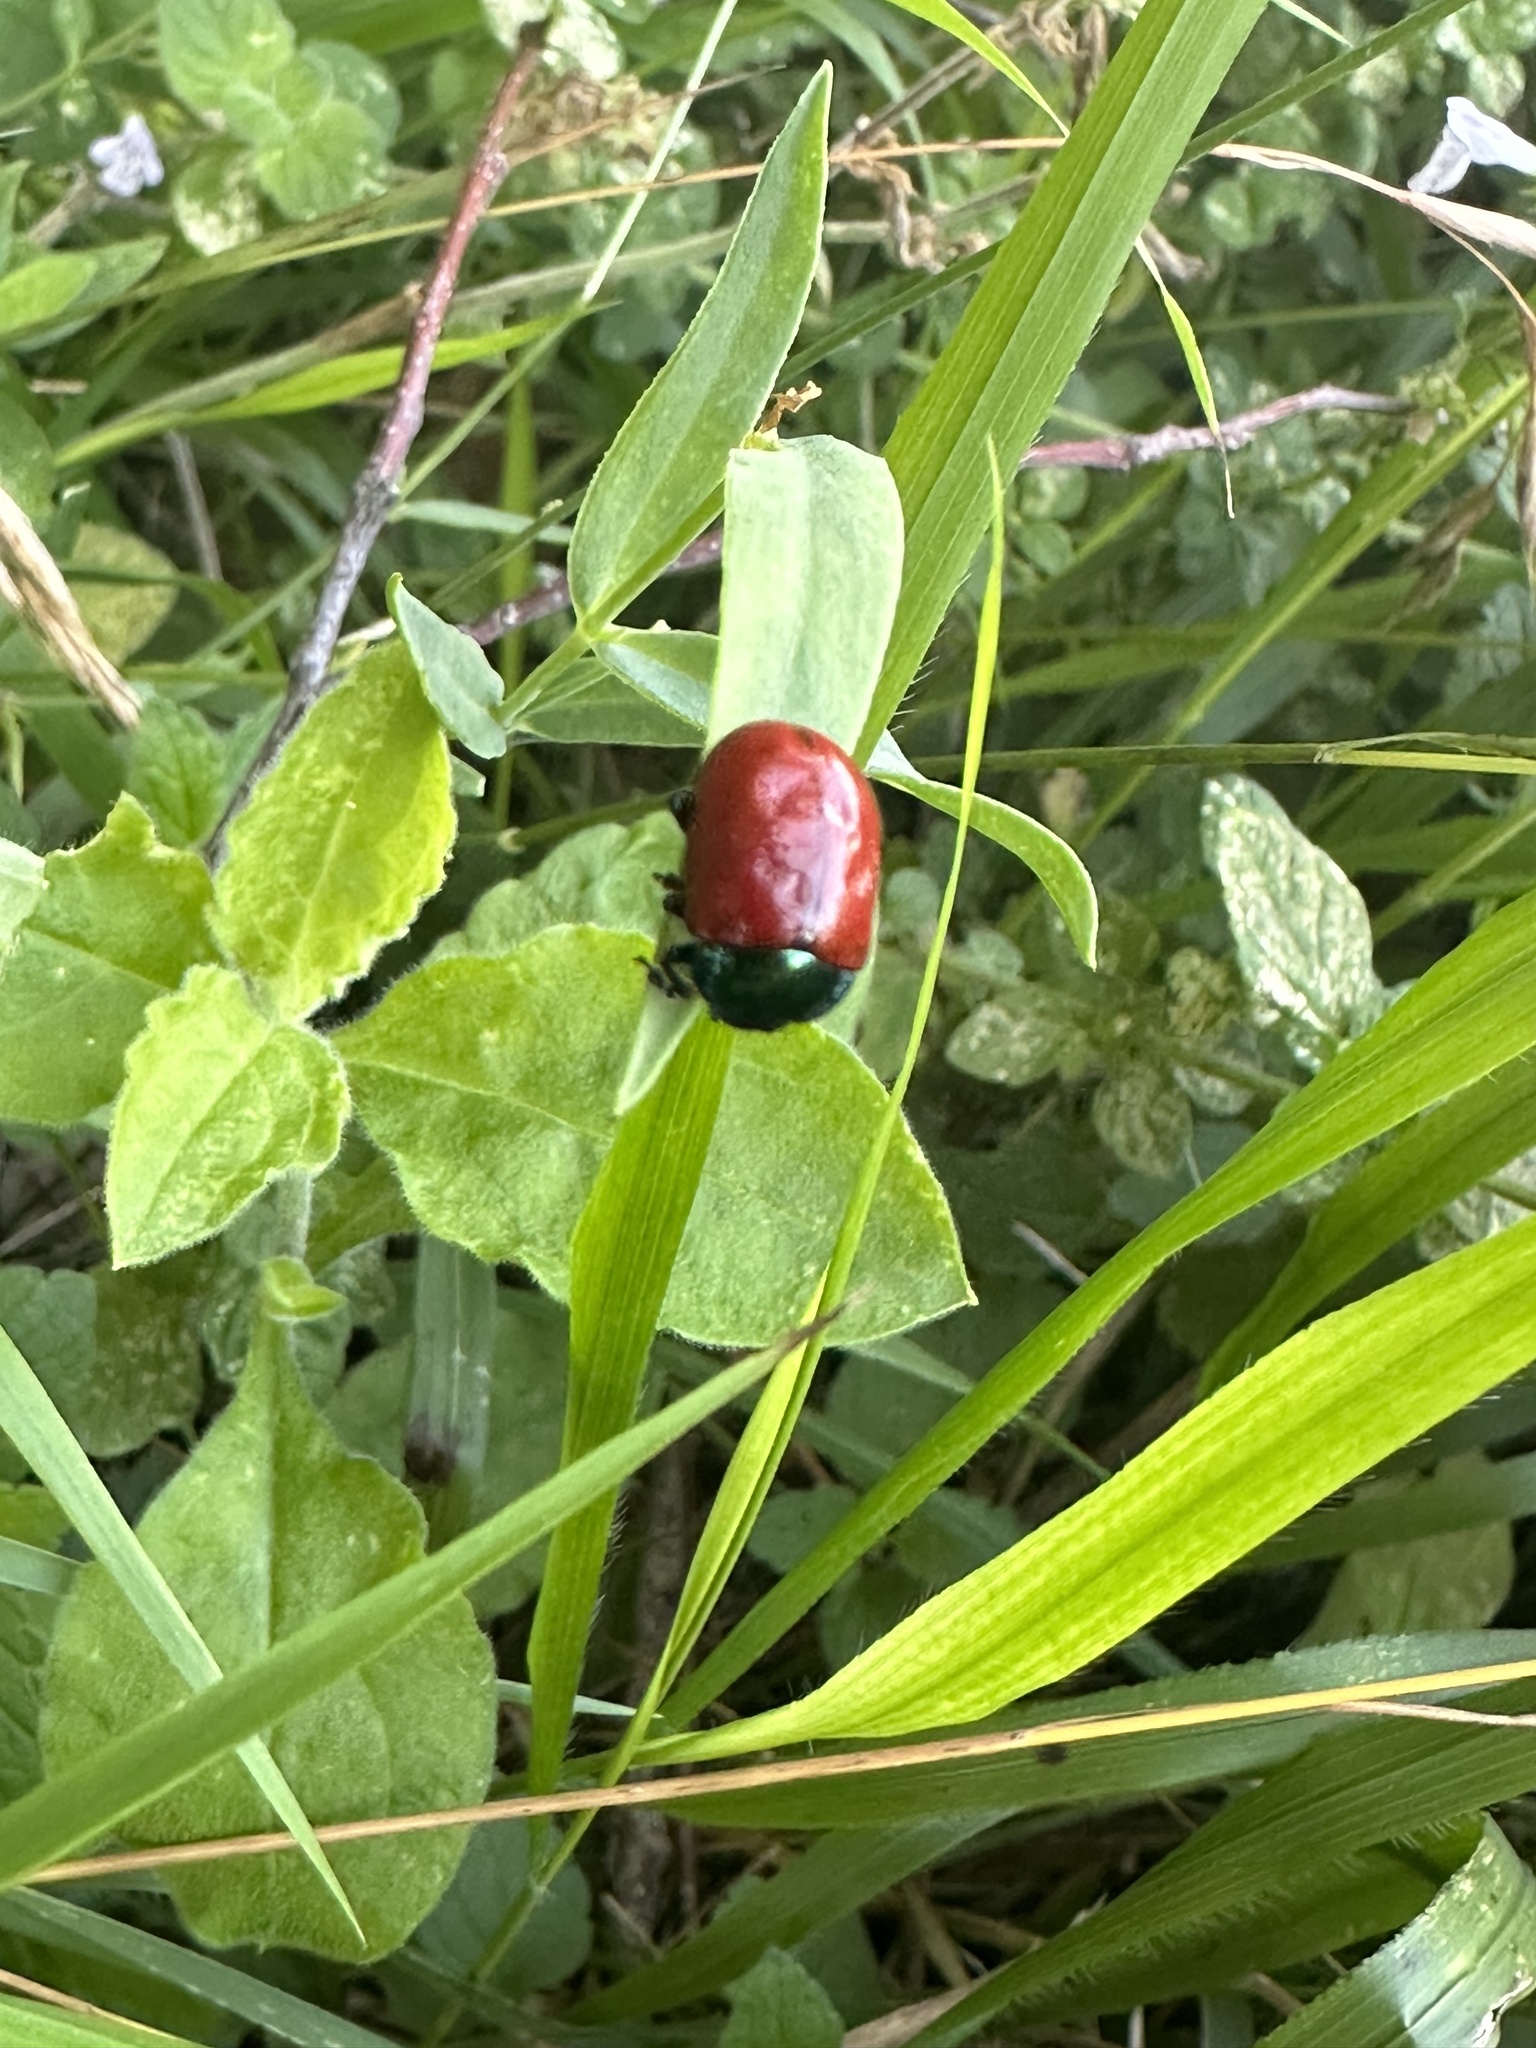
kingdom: Animalia
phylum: Arthropoda
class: Insecta
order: Coleoptera
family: Chrysomelidae
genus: Chrysolina
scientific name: Chrysolina grossa
